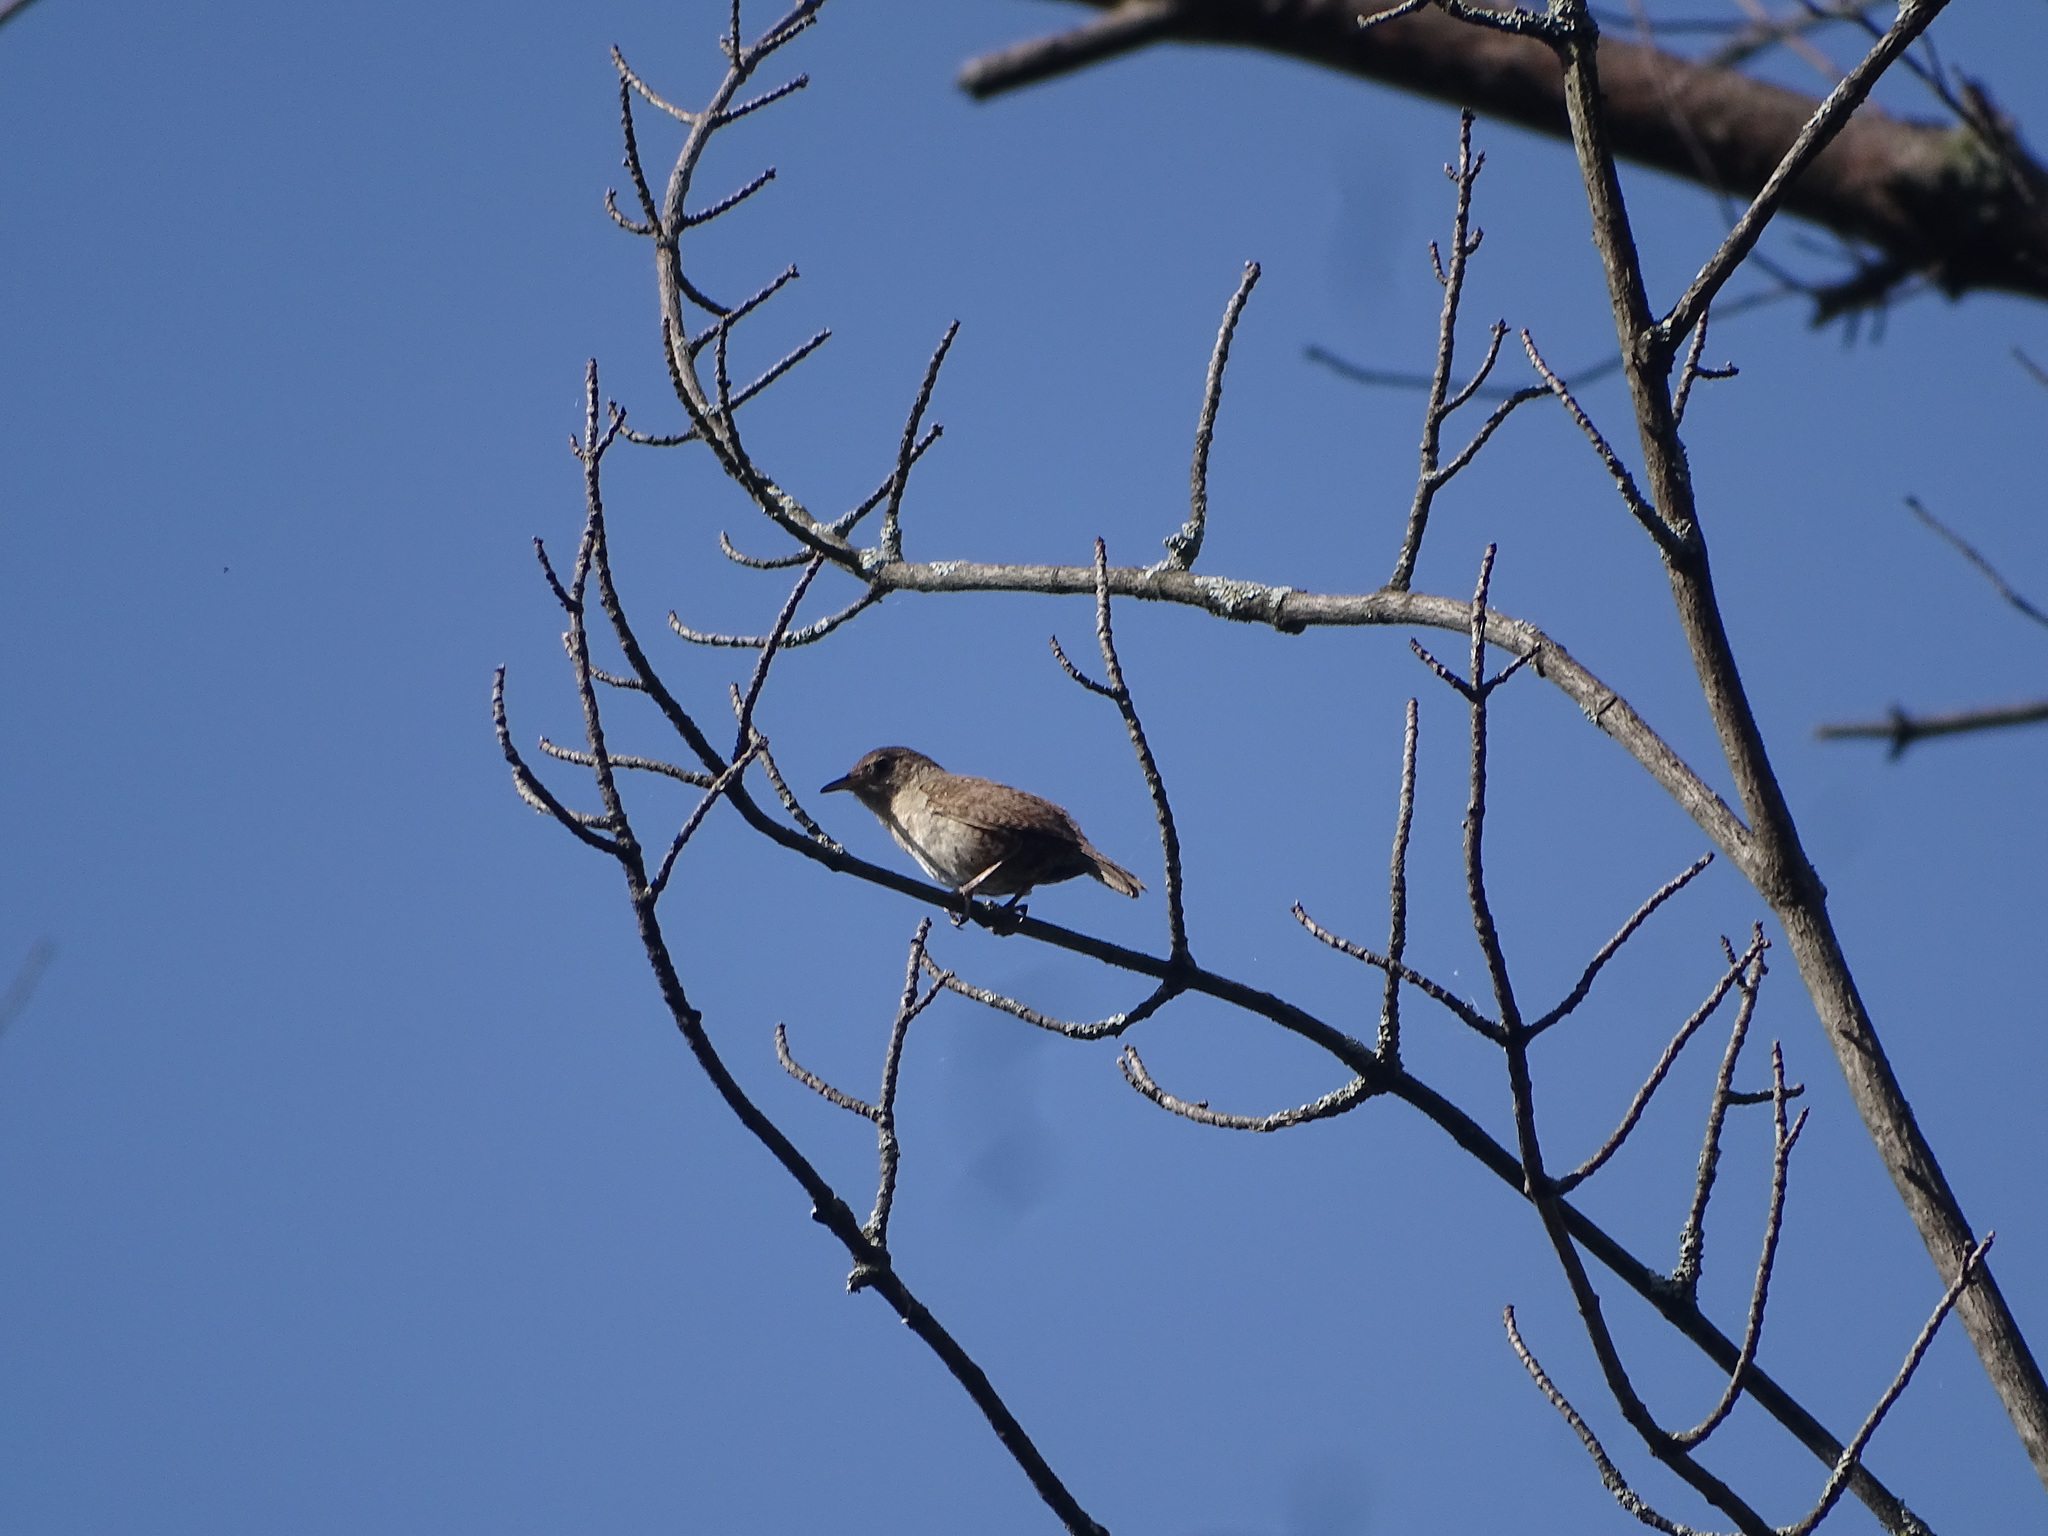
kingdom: Animalia
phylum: Chordata
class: Aves
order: Passeriformes
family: Troglodytidae
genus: Troglodytes
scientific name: Troglodytes aedon
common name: House wren
